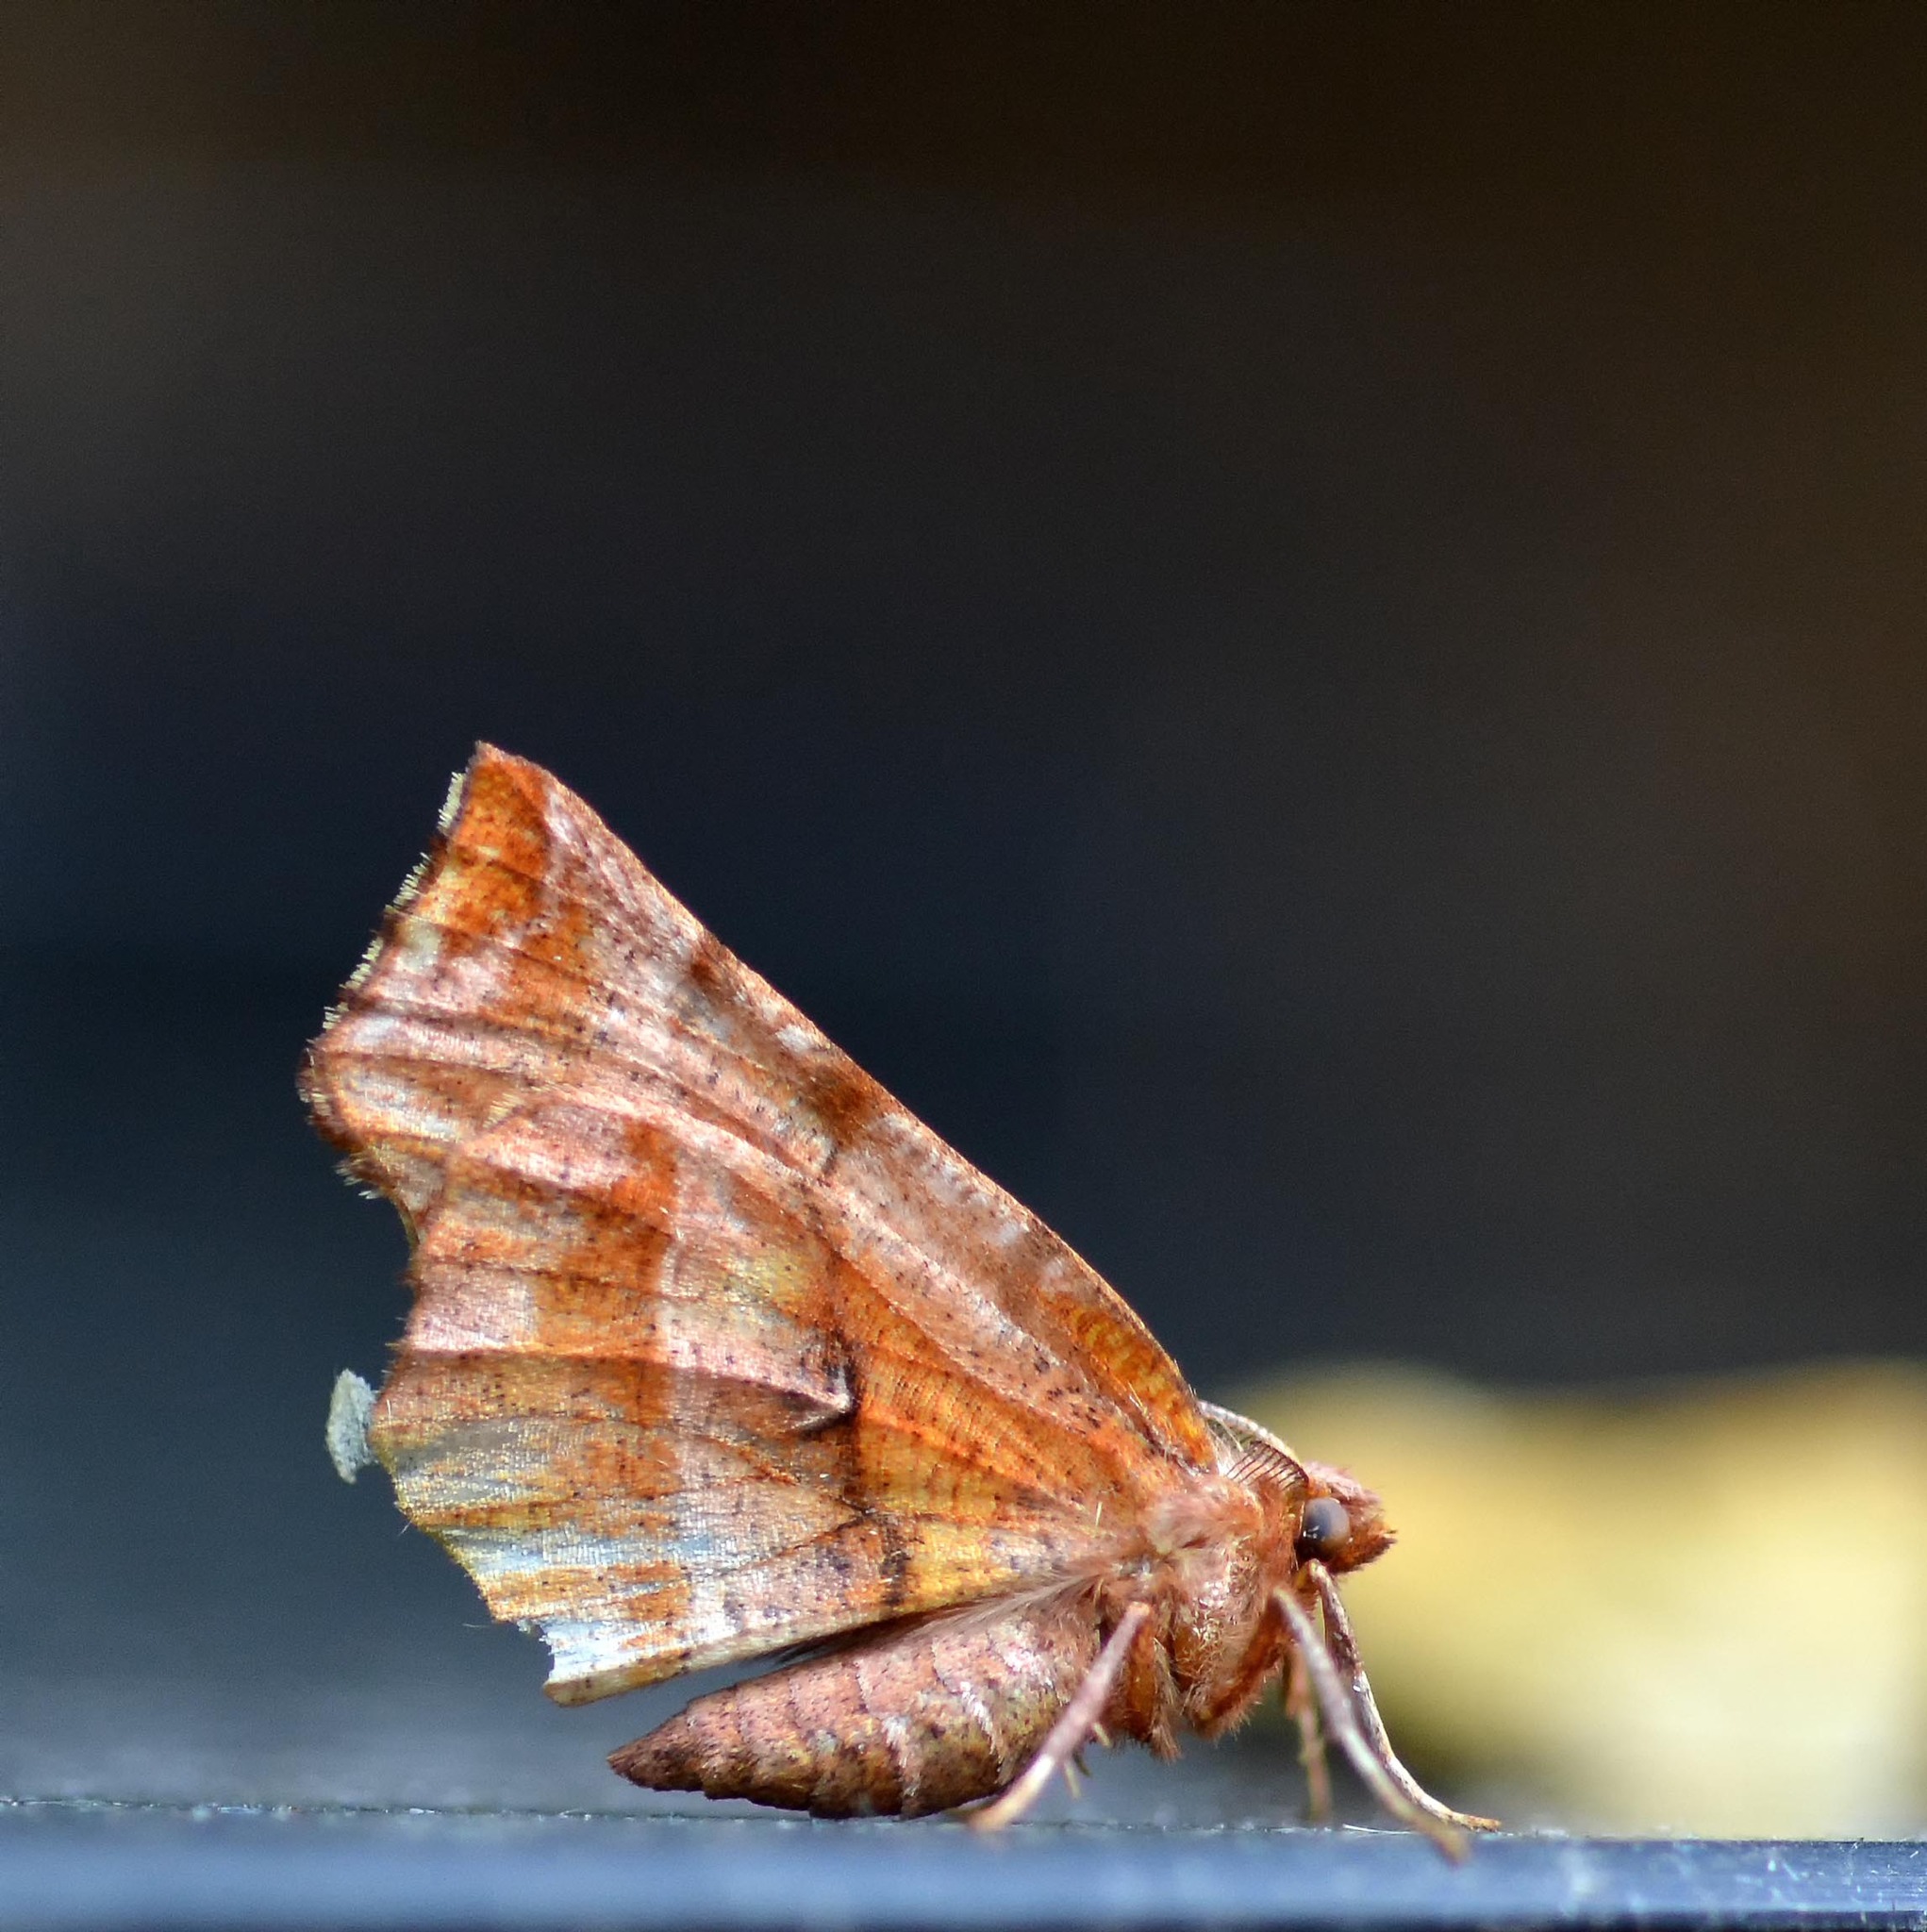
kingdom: Animalia
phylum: Arthropoda
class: Insecta
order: Lepidoptera
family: Geometridae
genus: Selenia
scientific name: Selenia dentaria
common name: Early thorn
